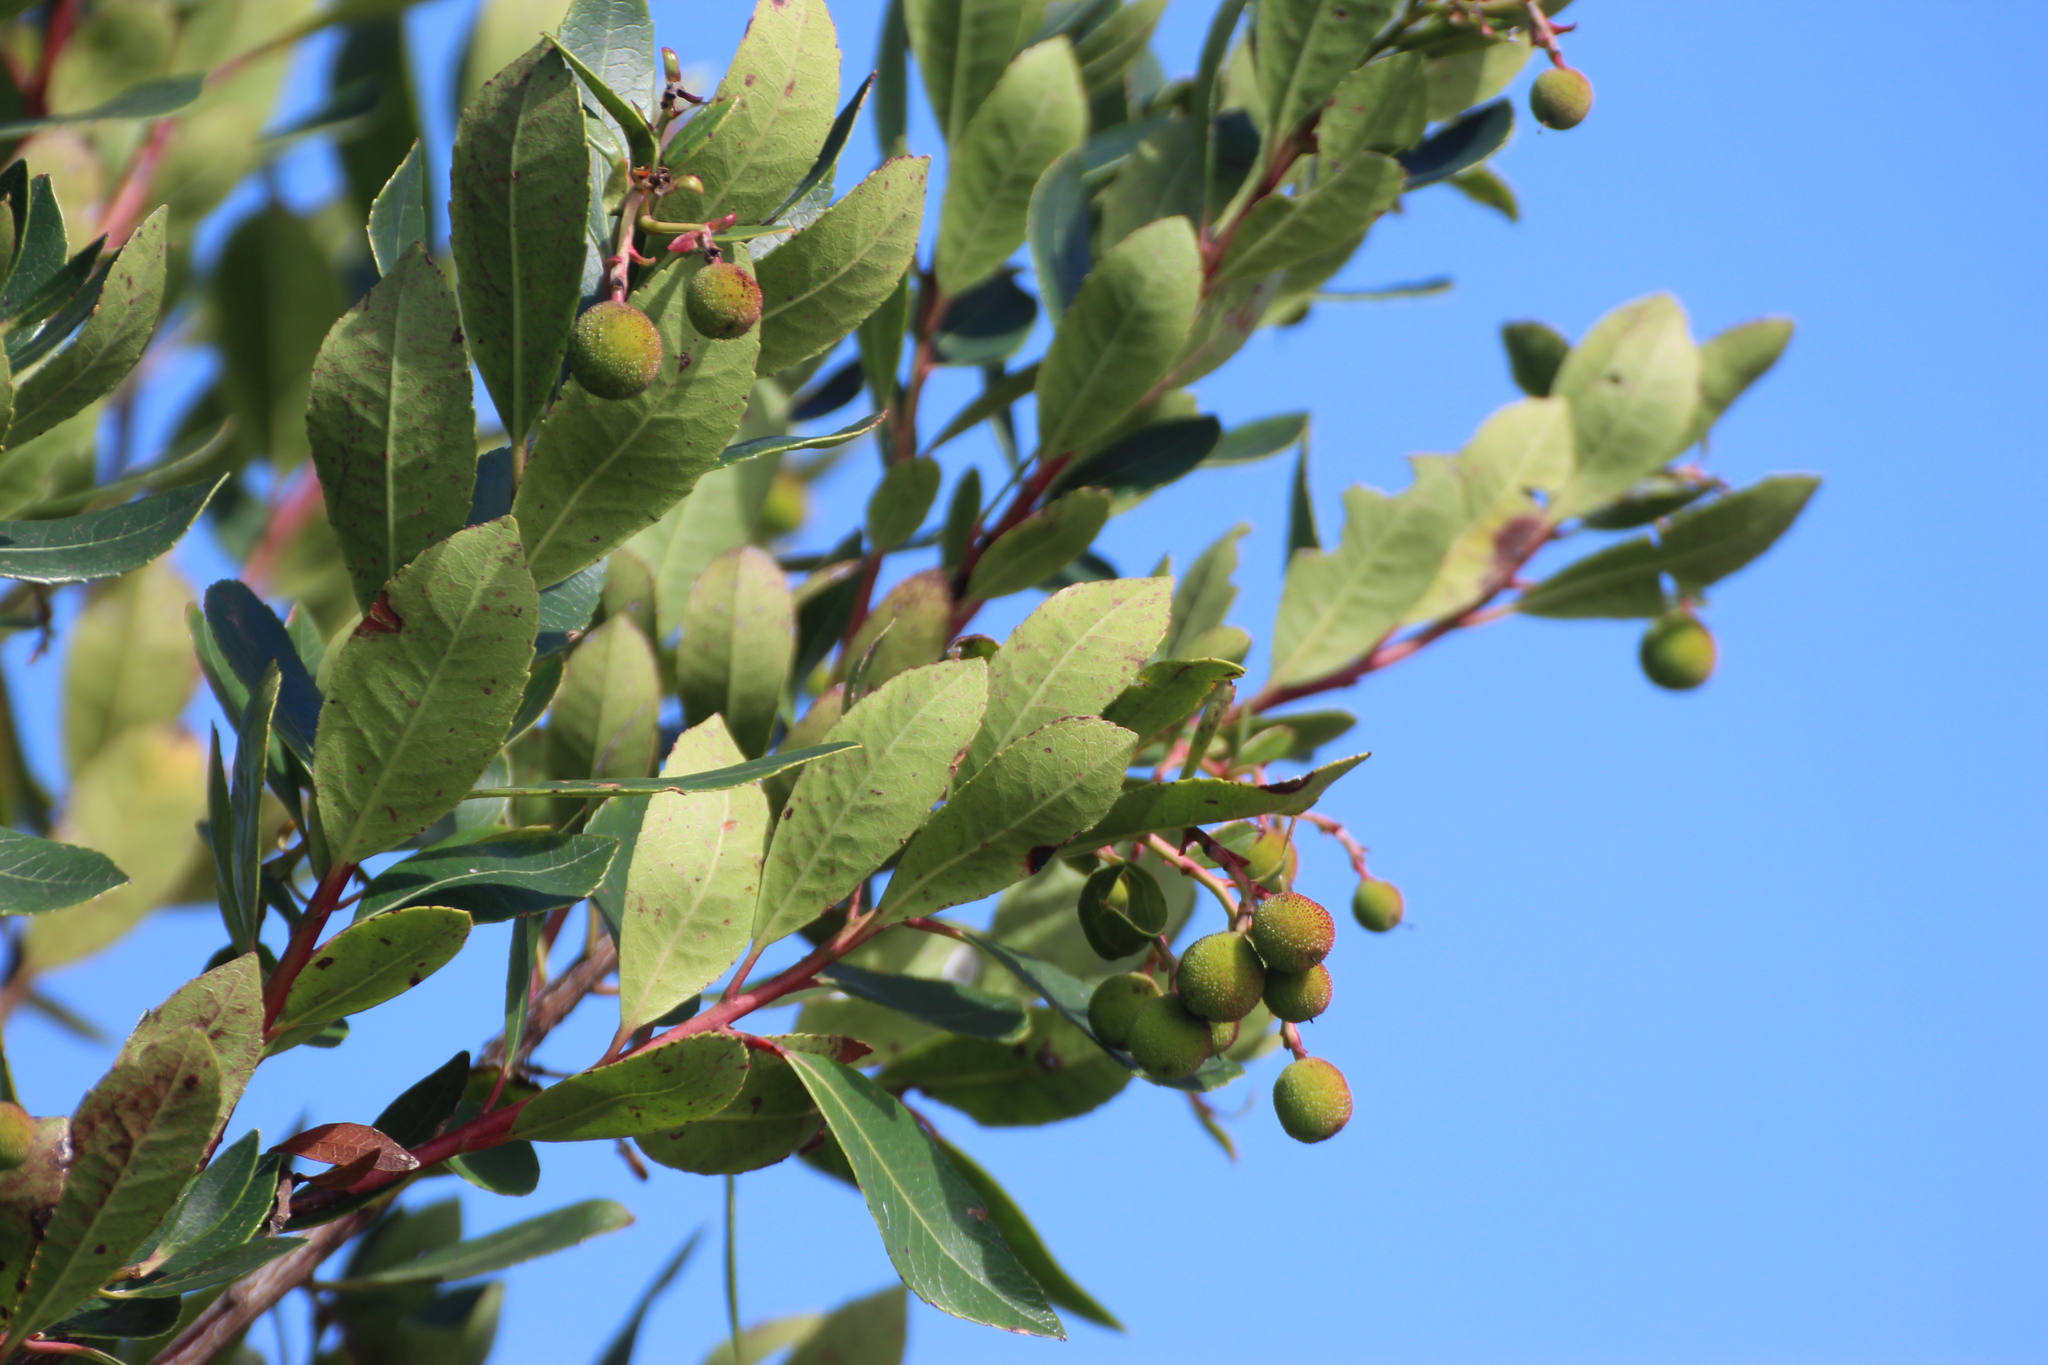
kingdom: Plantae
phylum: Tracheophyta
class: Magnoliopsida
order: Ericales
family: Ericaceae
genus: Arbutus
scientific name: Arbutus unedo
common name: Strawberry-tree
